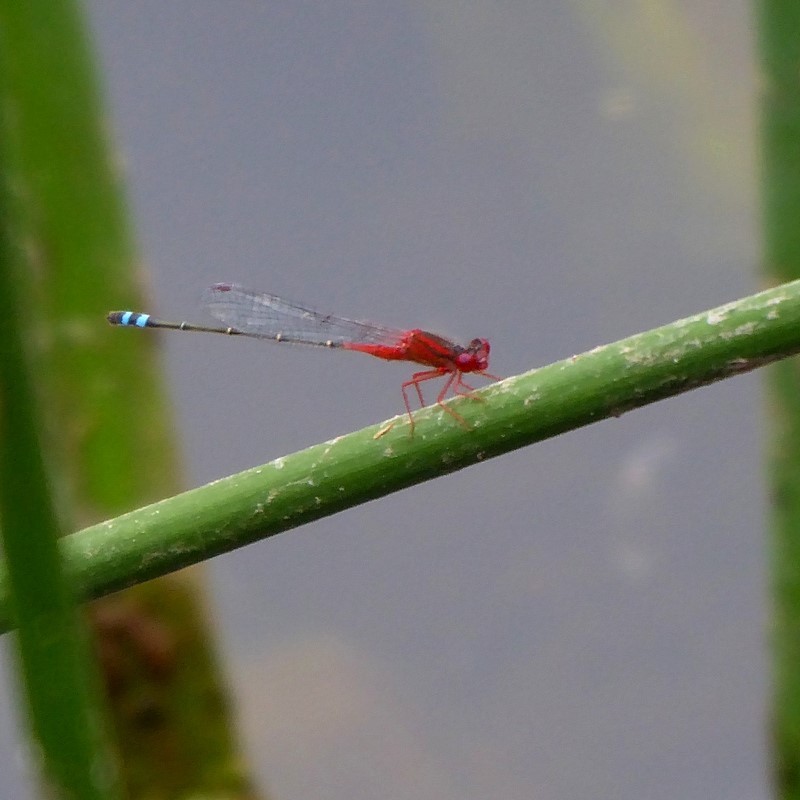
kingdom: Animalia
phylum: Arthropoda
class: Insecta
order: Odonata
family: Coenagrionidae
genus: Xanthagrion
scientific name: Xanthagrion erythroneurum
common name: Red and blue damsel
